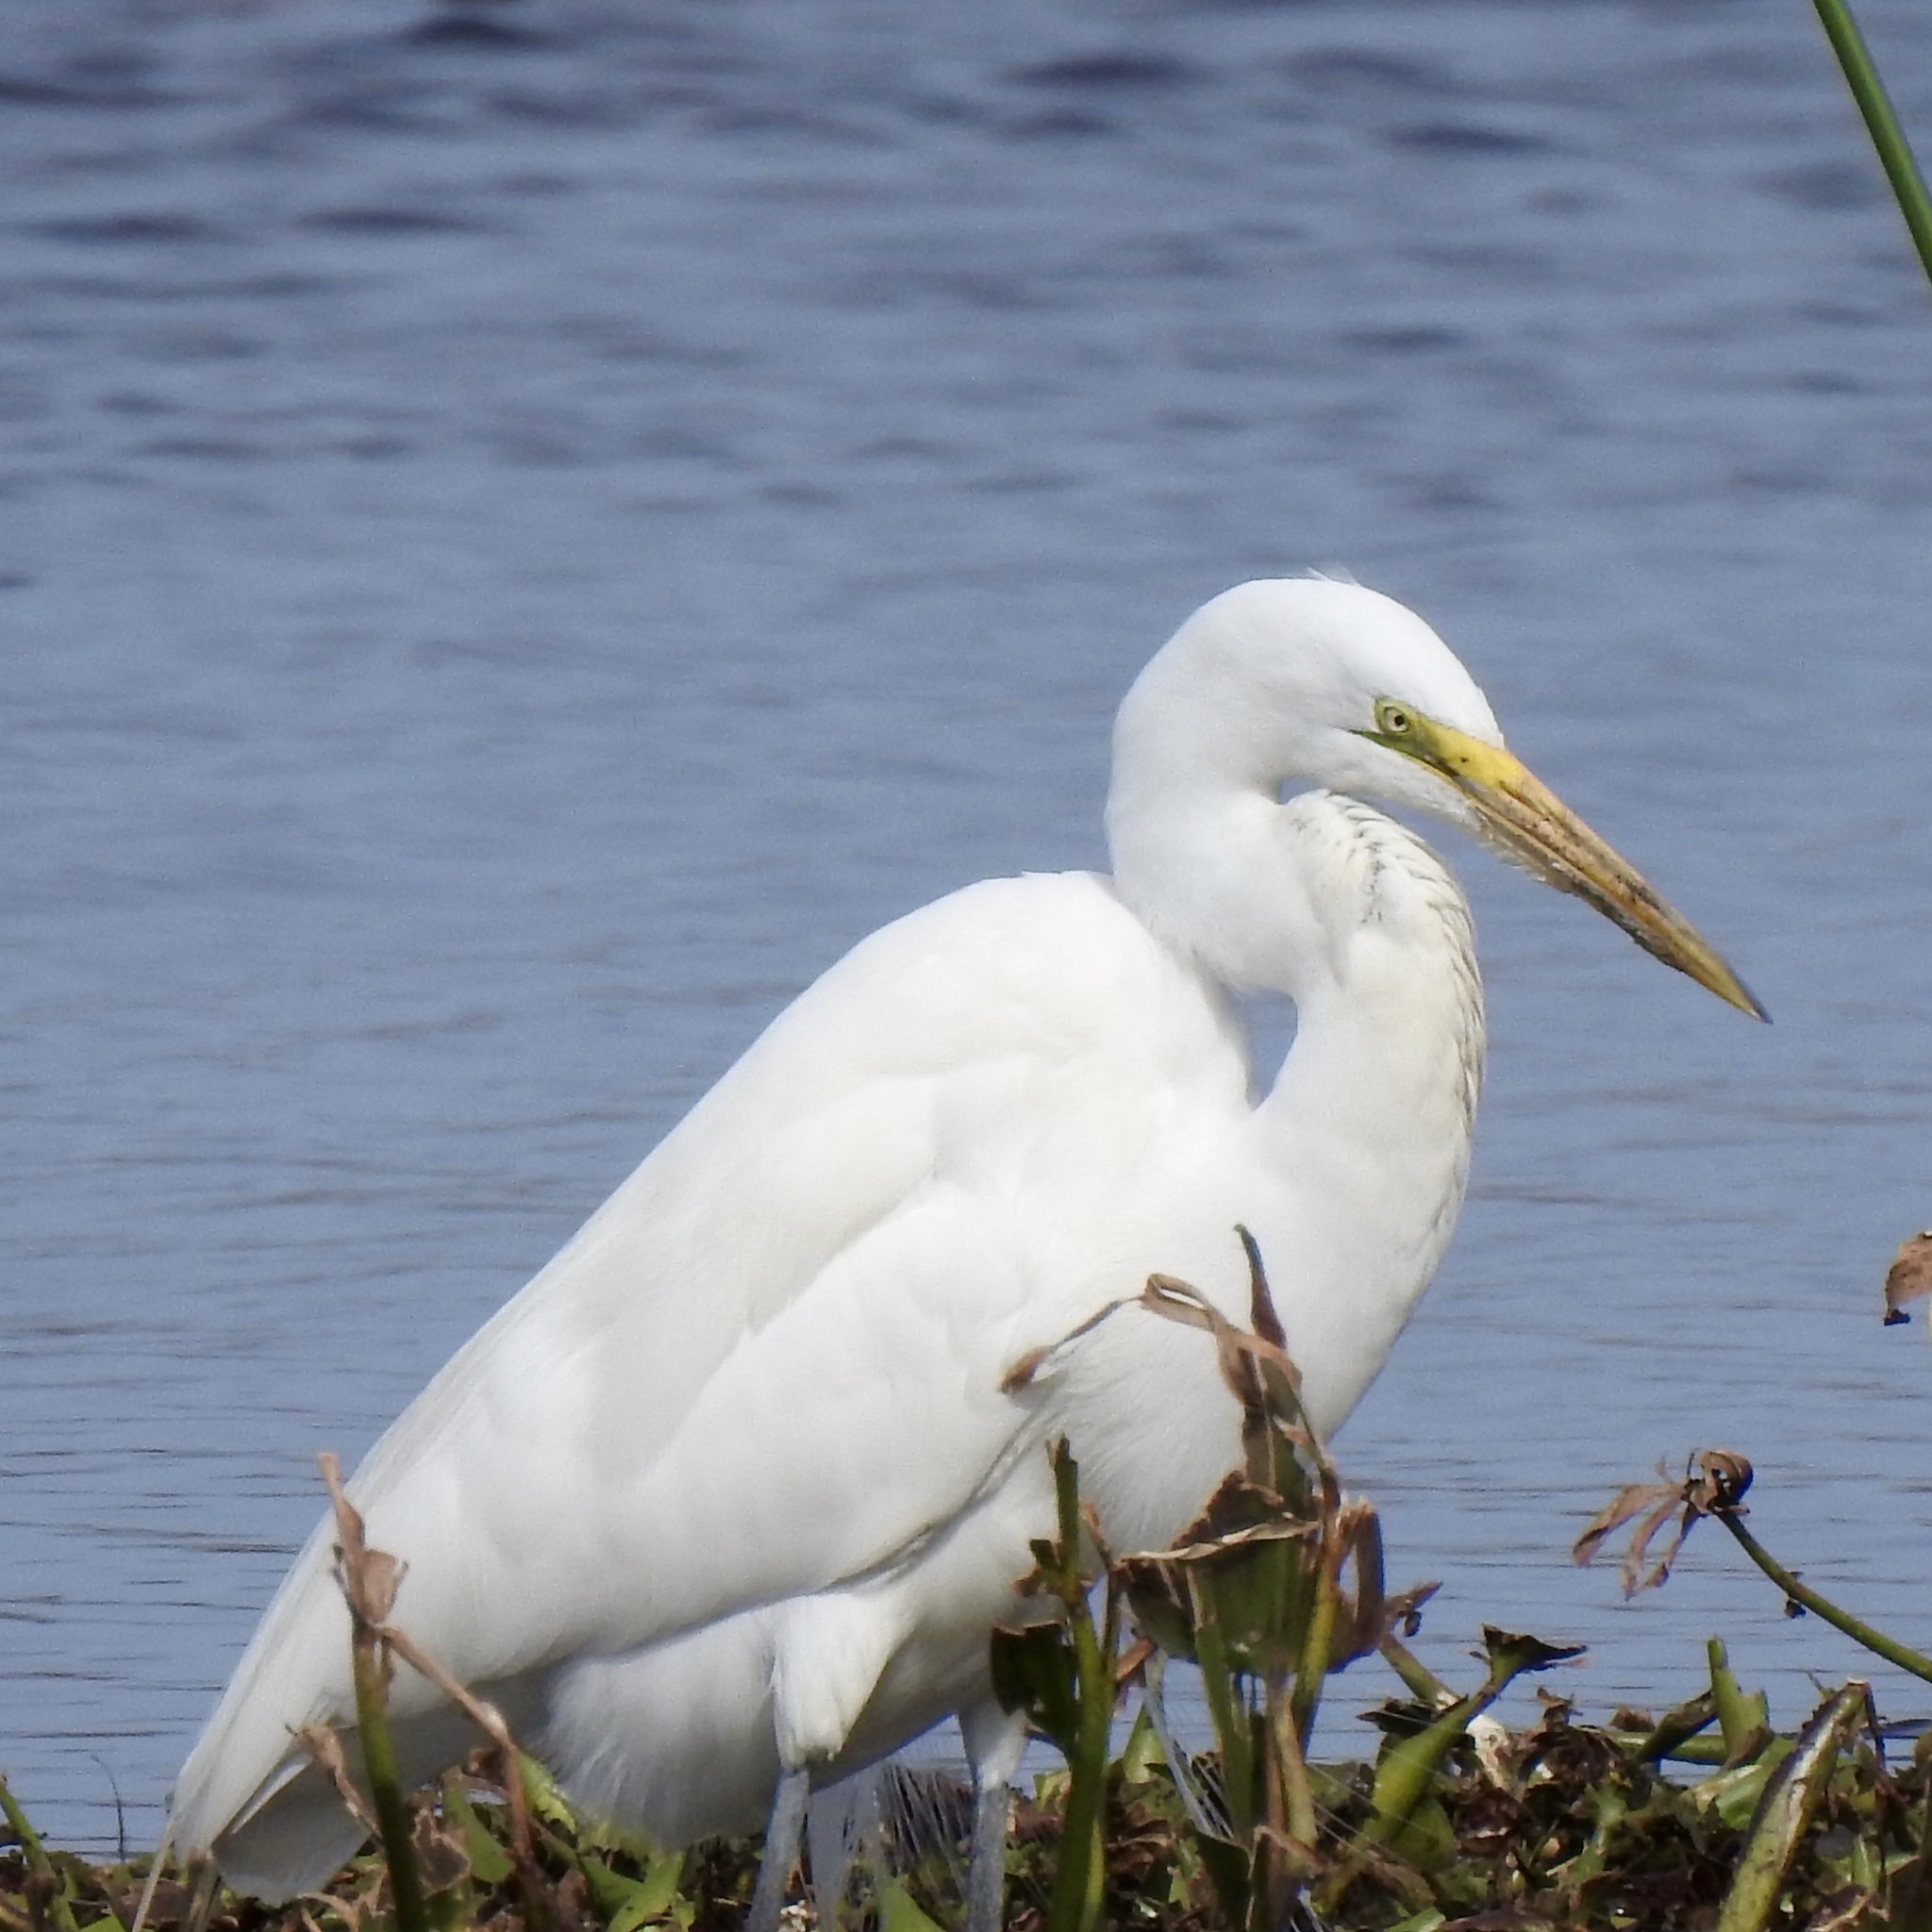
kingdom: Animalia
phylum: Chordata
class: Aves
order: Pelecaniformes
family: Ardeidae
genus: Ardea
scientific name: Ardea alba
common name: Great egret
